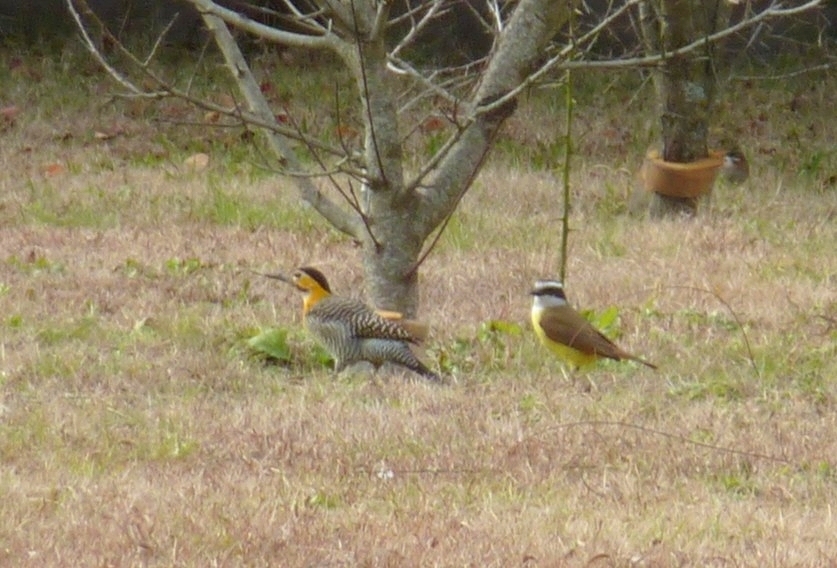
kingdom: Animalia
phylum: Chordata
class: Aves
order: Piciformes
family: Picidae
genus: Colaptes
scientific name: Colaptes campestris
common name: Campo flicker
